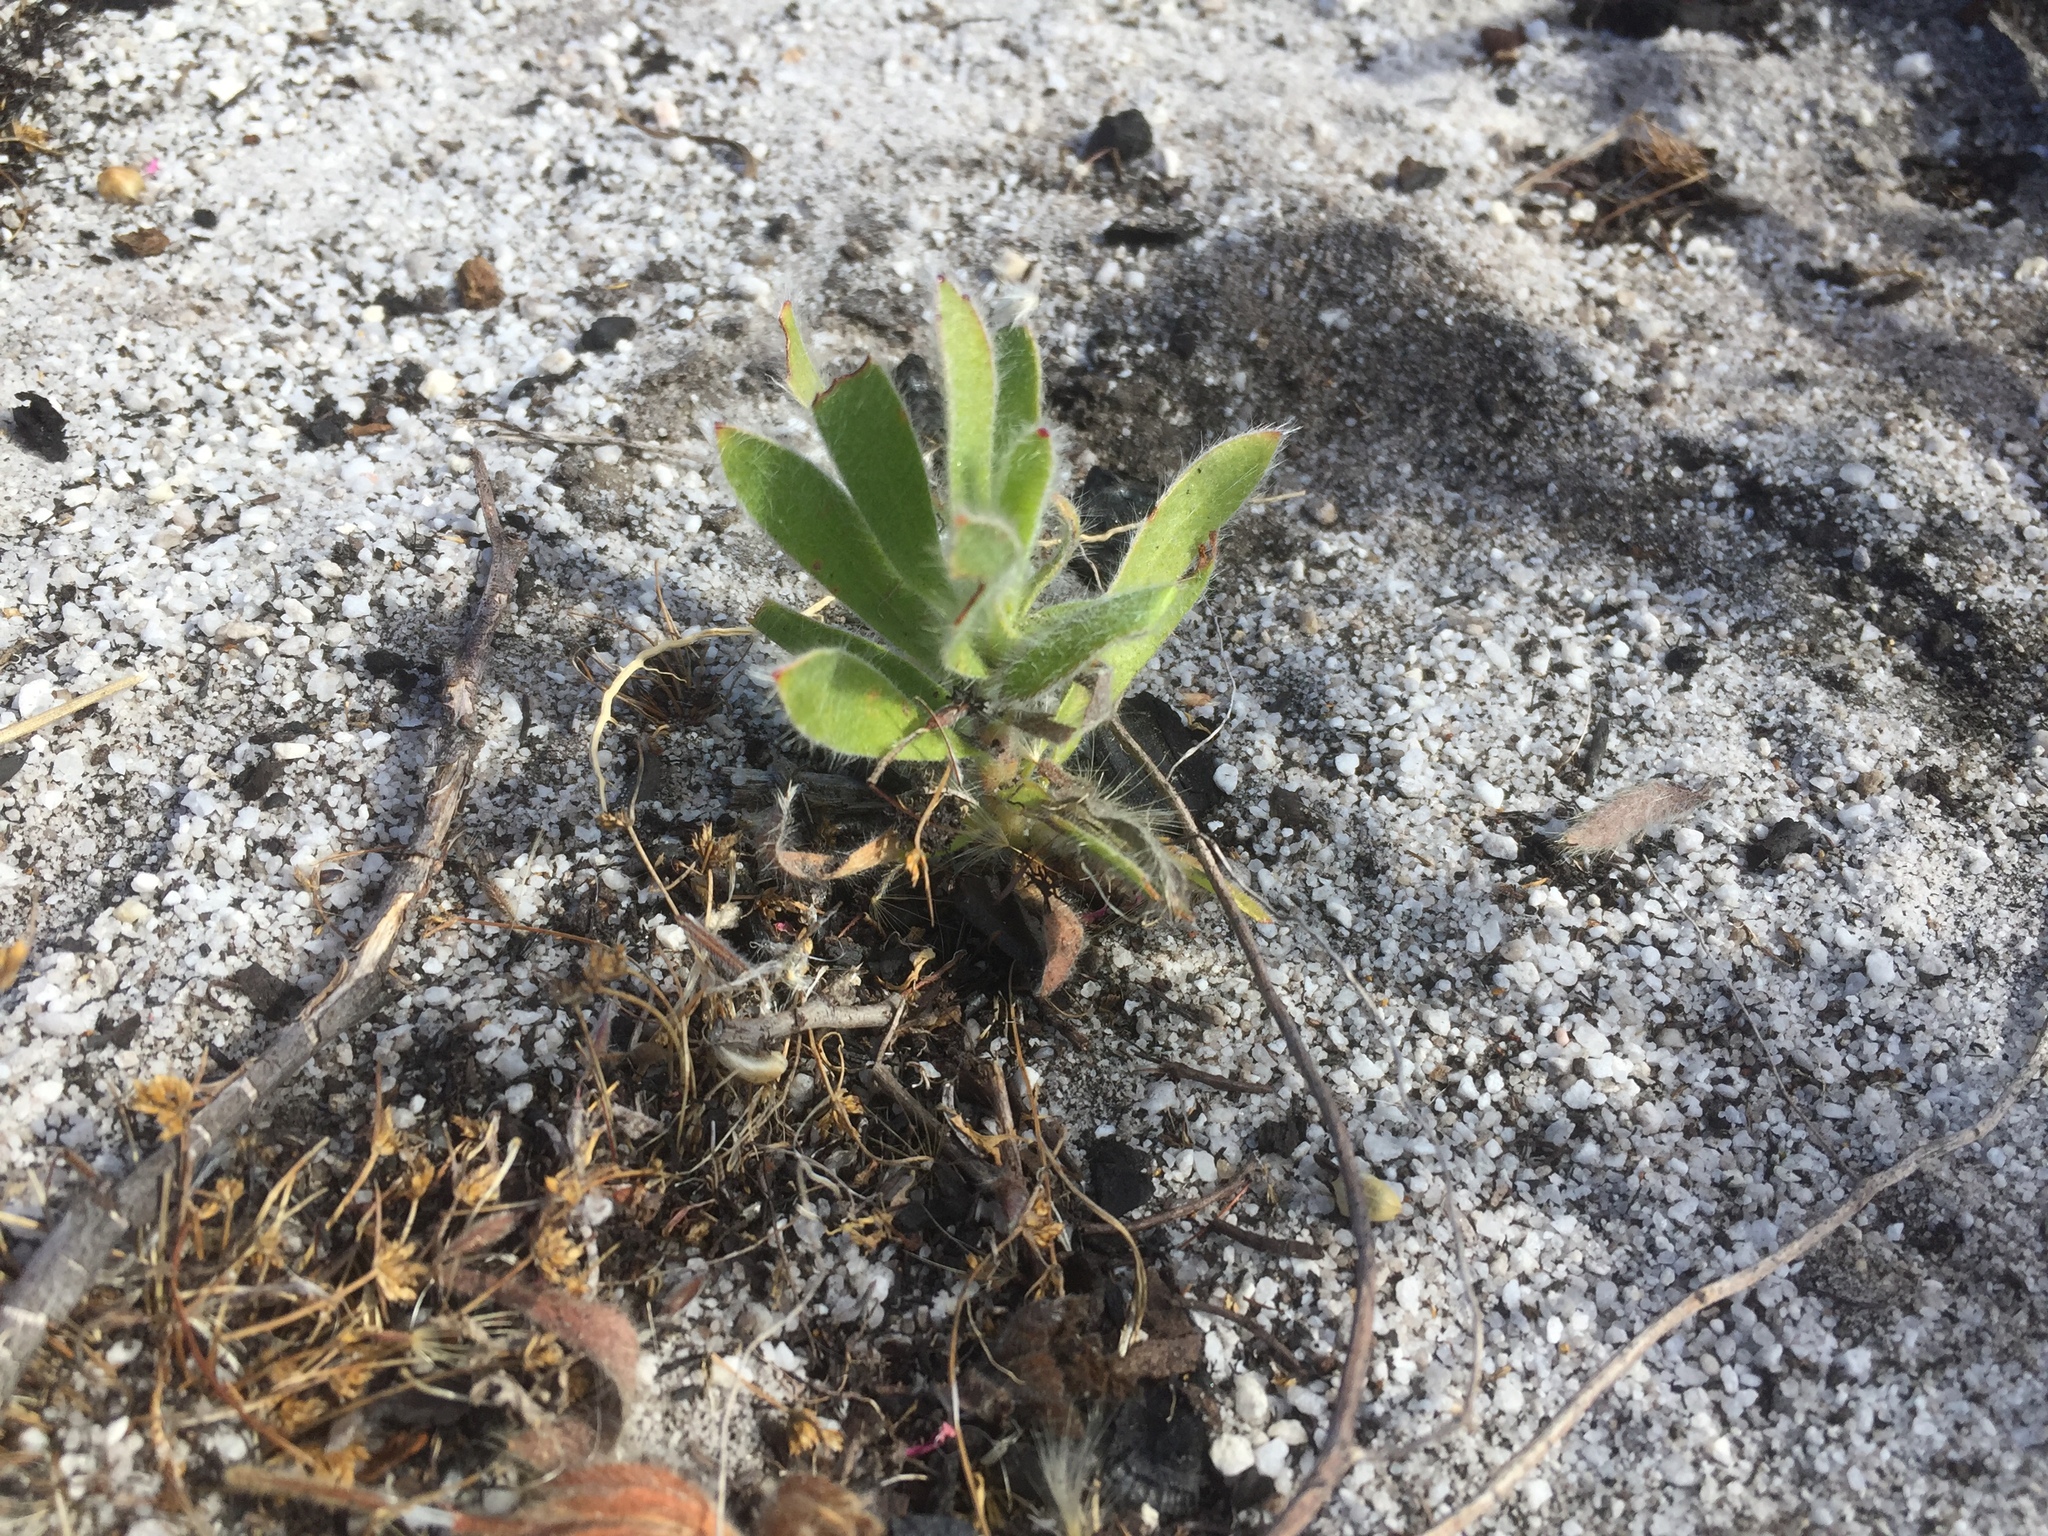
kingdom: Plantae
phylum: Tracheophyta
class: Magnoliopsida
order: Proteales
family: Proteaceae
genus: Leucospermum
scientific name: Leucospermum conocarpodendron
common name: Tree pincushion
